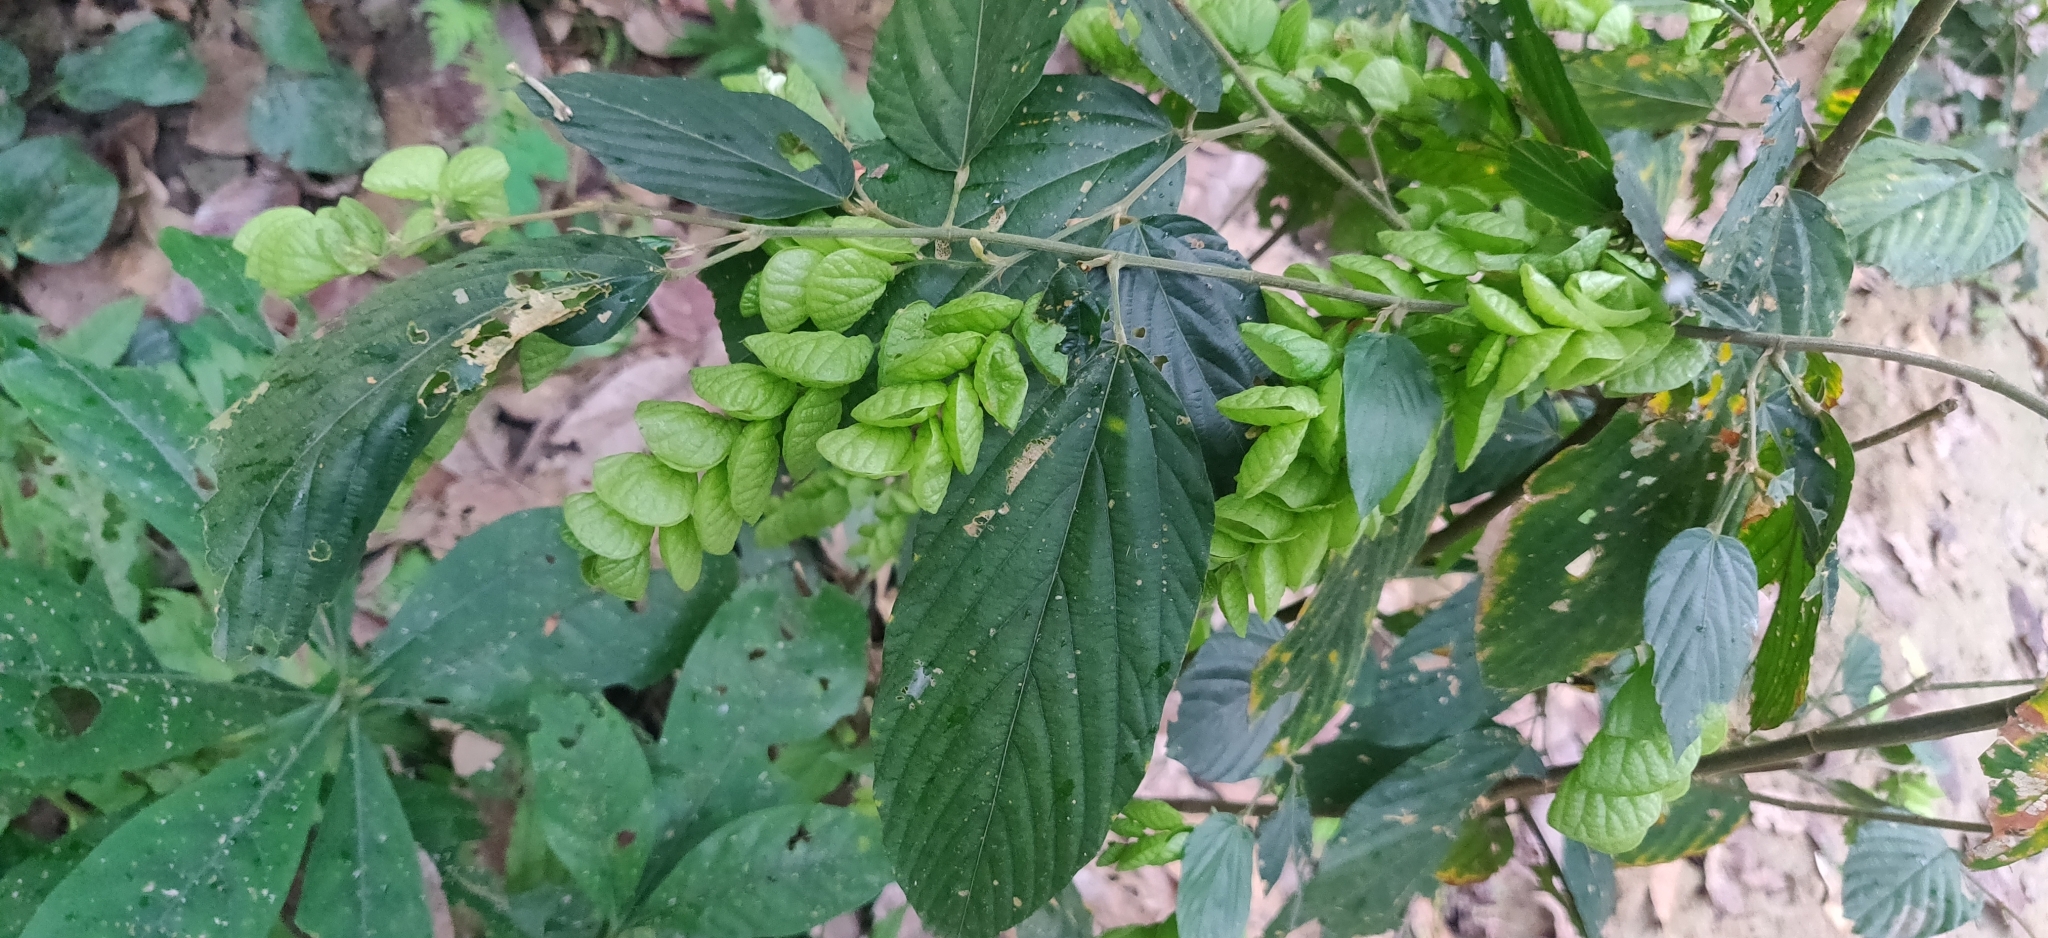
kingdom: Plantae
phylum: Tracheophyta
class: Magnoliopsida
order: Fabales
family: Fabaceae
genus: Flemingia
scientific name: Flemingia strobilifera
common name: Wild hops
